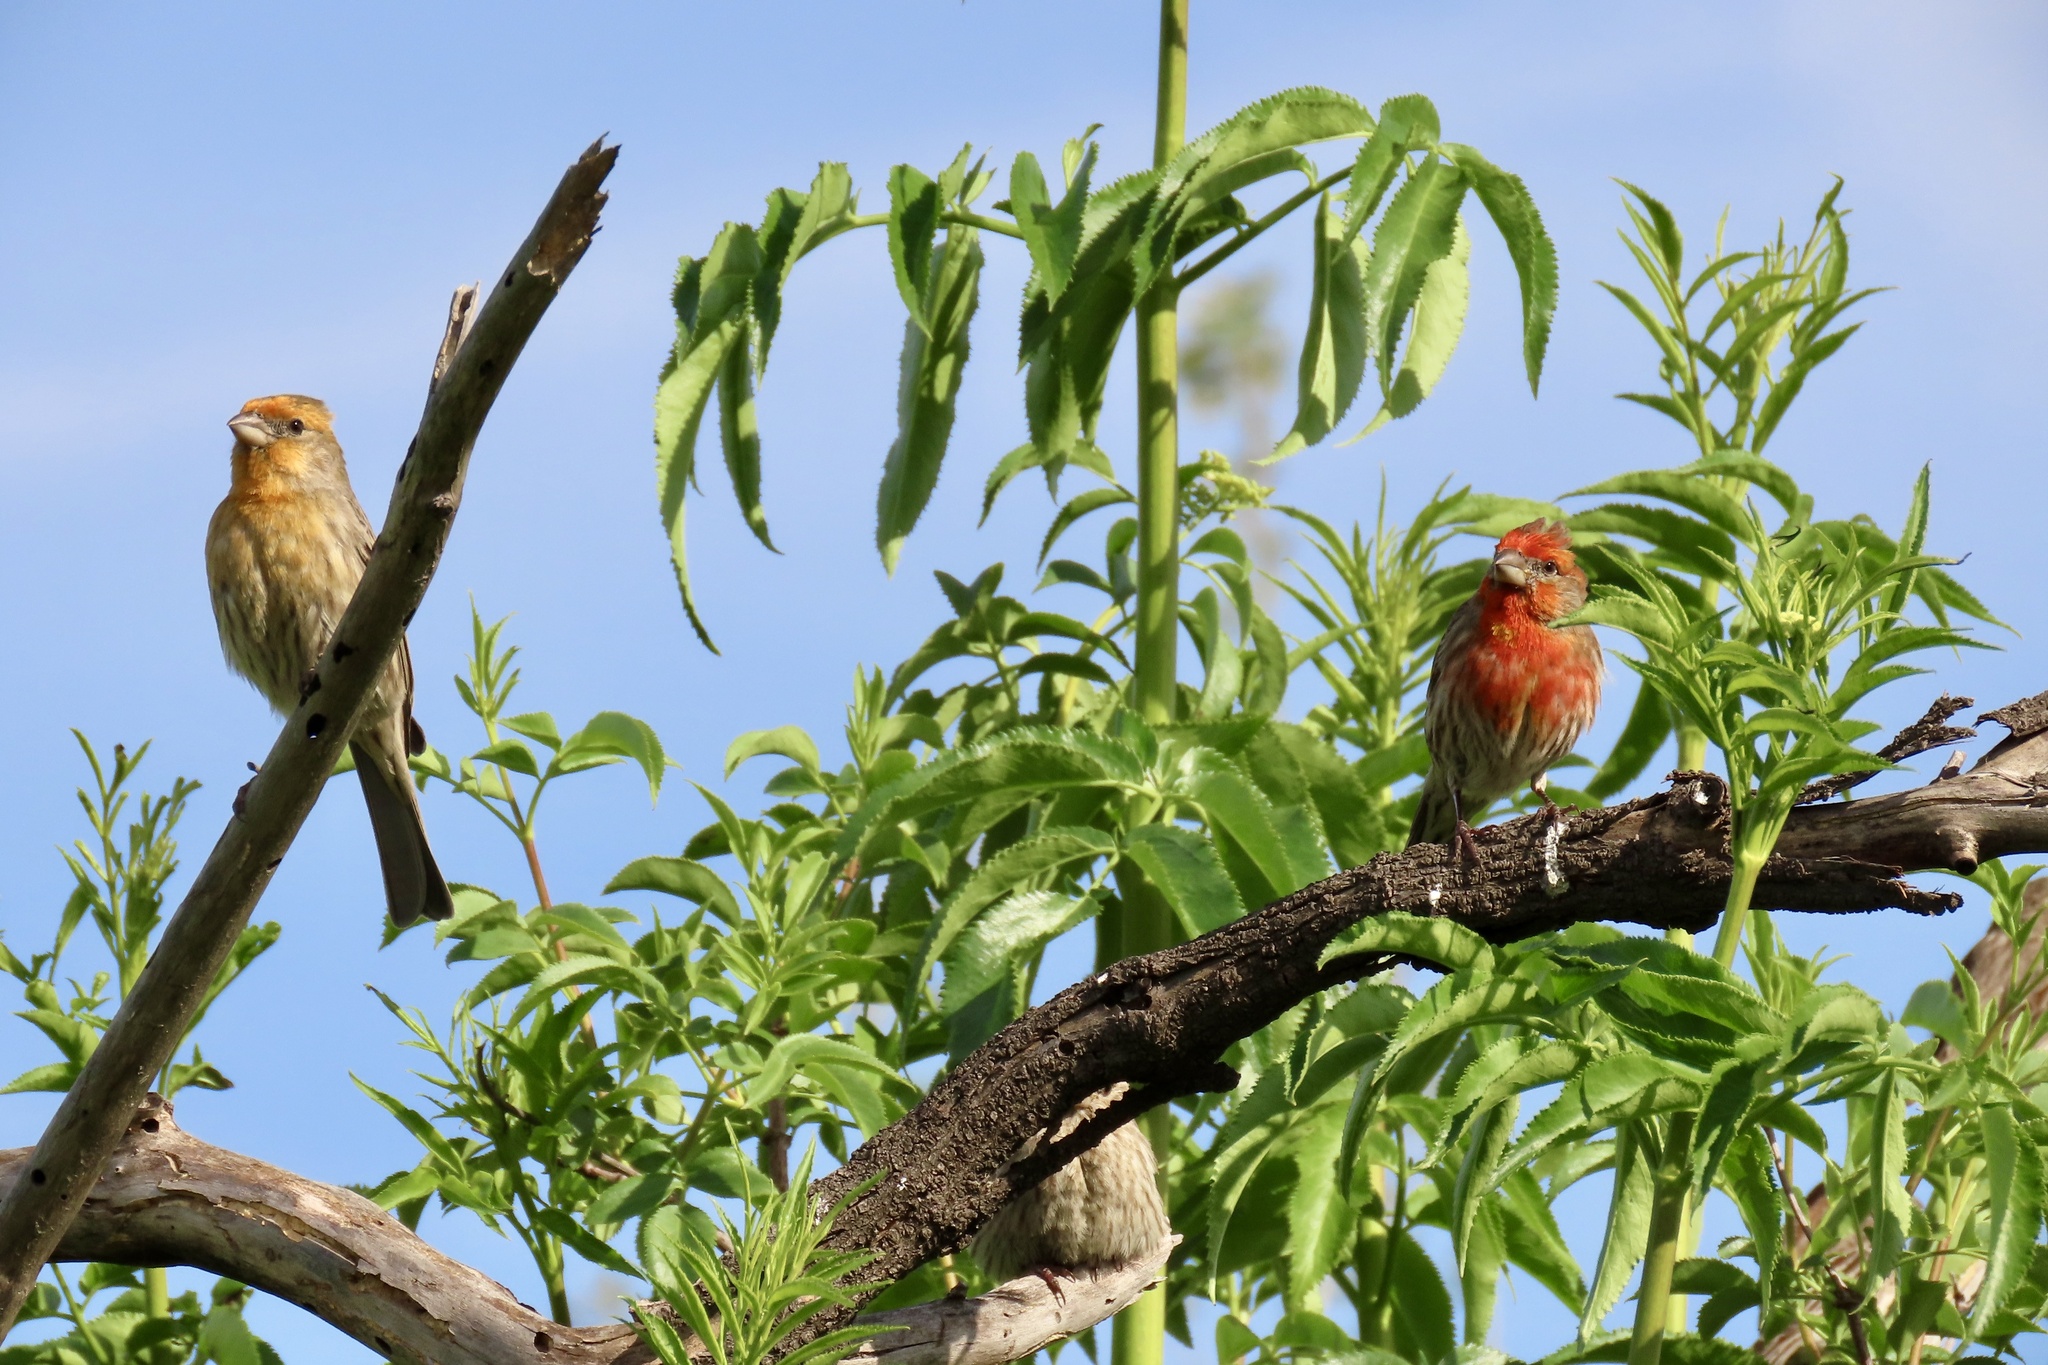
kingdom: Animalia
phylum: Chordata
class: Aves
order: Passeriformes
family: Fringillidae
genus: Haemorhous
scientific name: Haemorhous mexicanus
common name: House finch
